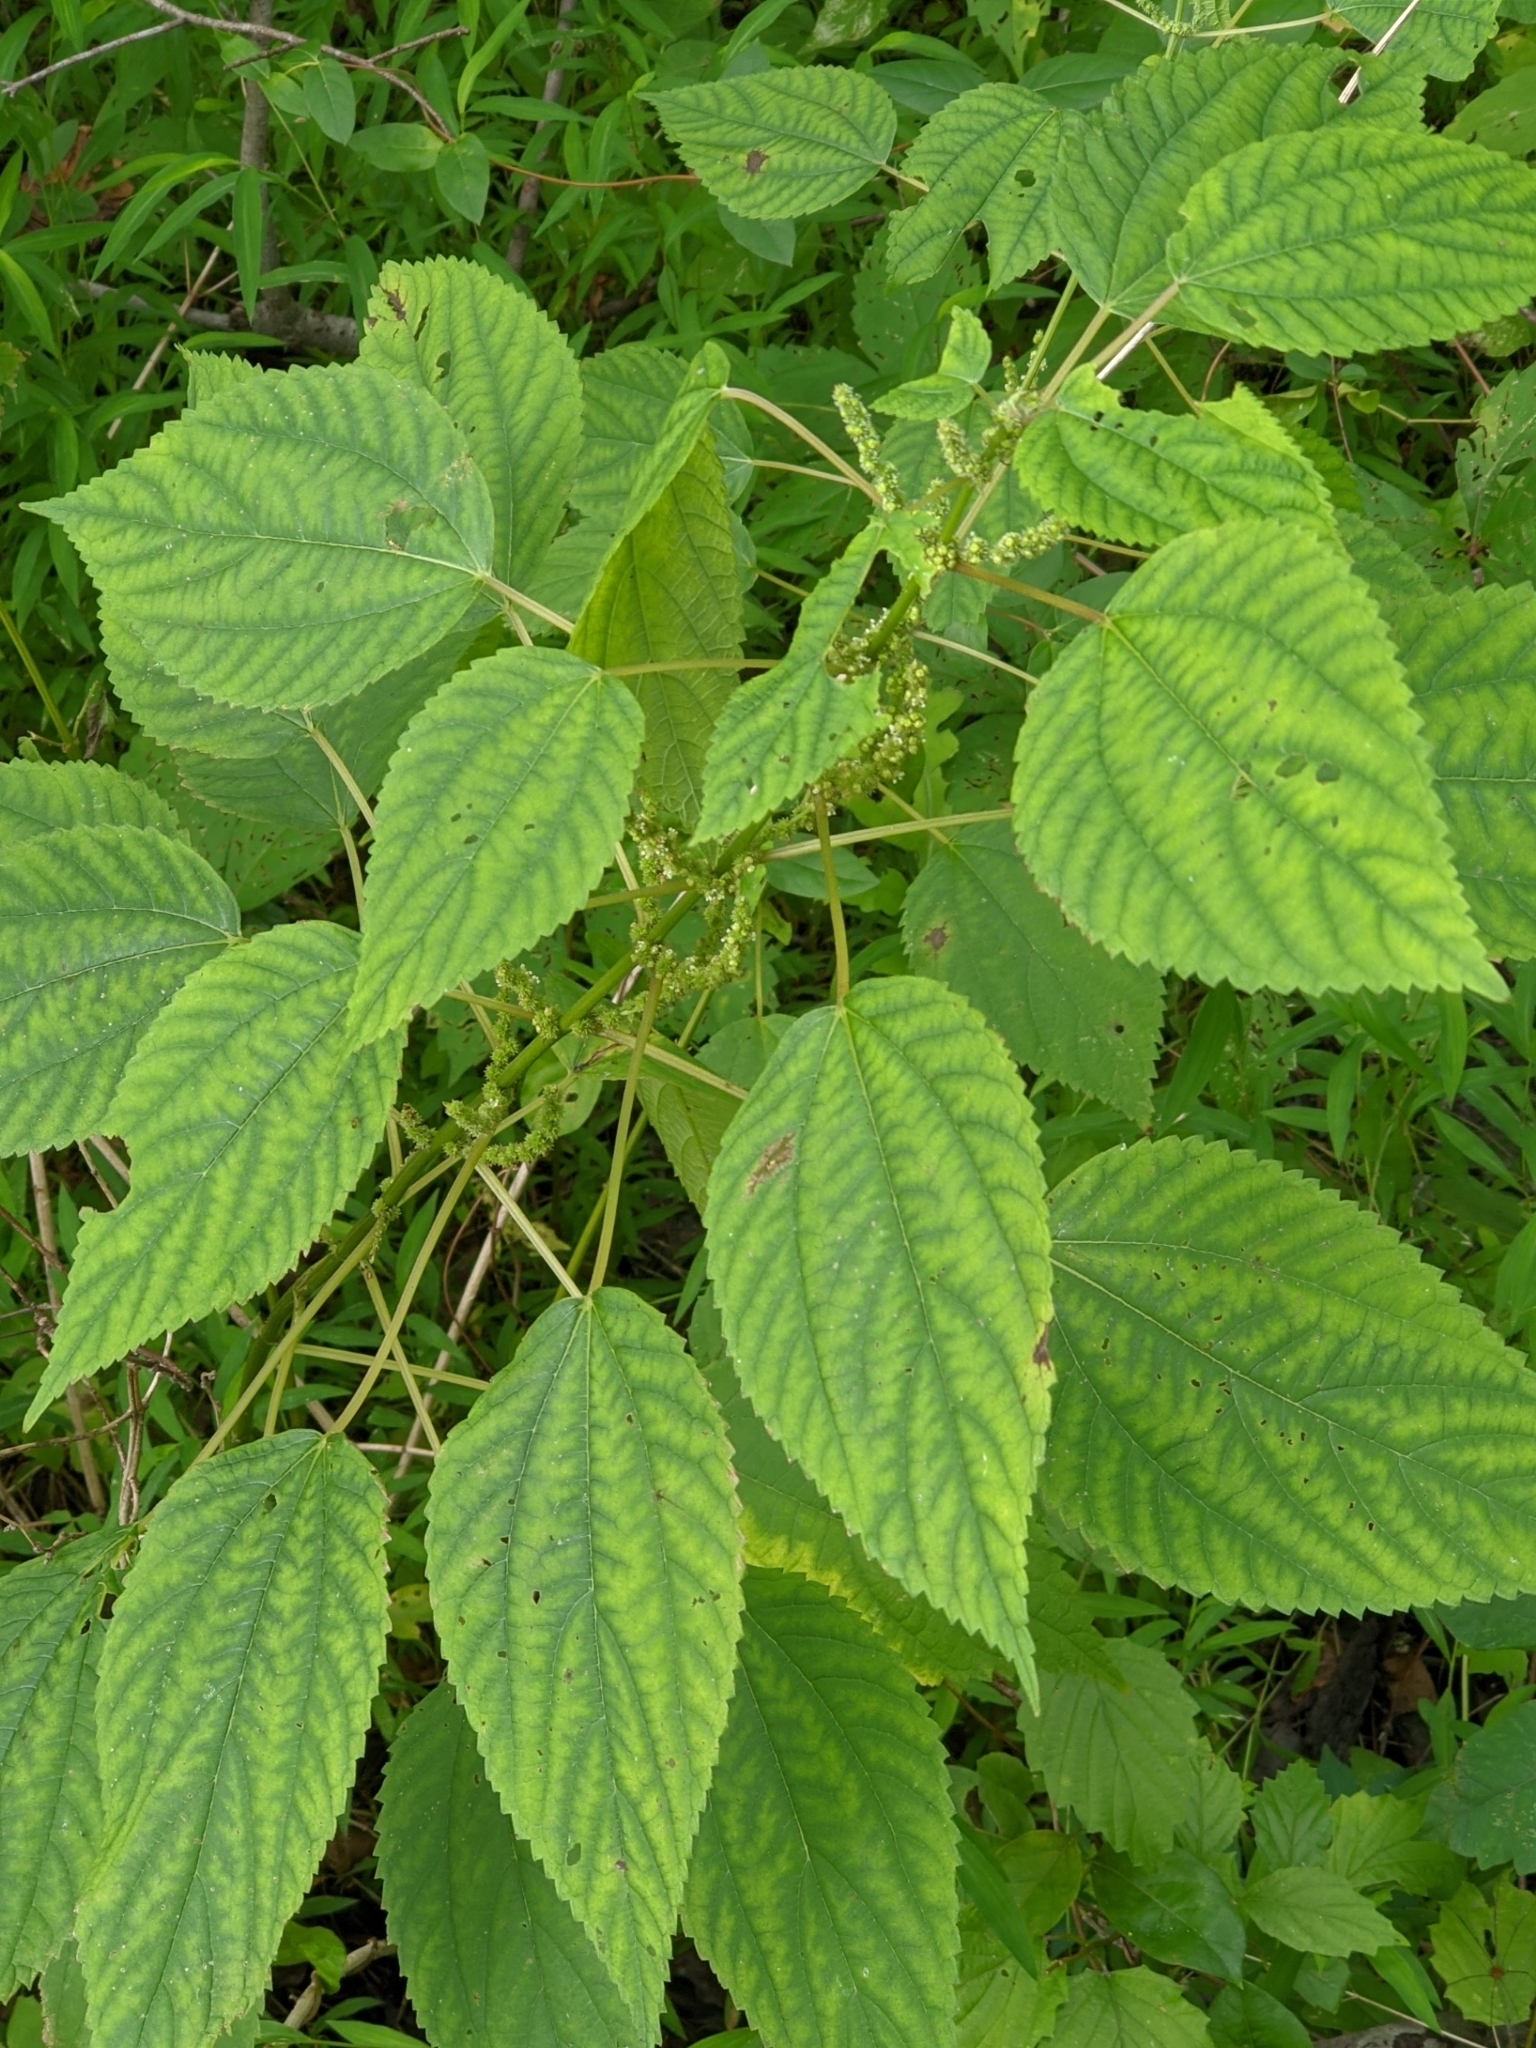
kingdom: Plantae
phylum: Tracheophyta
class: Magnoliopsida
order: Rosales
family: Urticaceae
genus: Boehmeria
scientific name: Boehmeria cylindrica
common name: Bog-hemp
